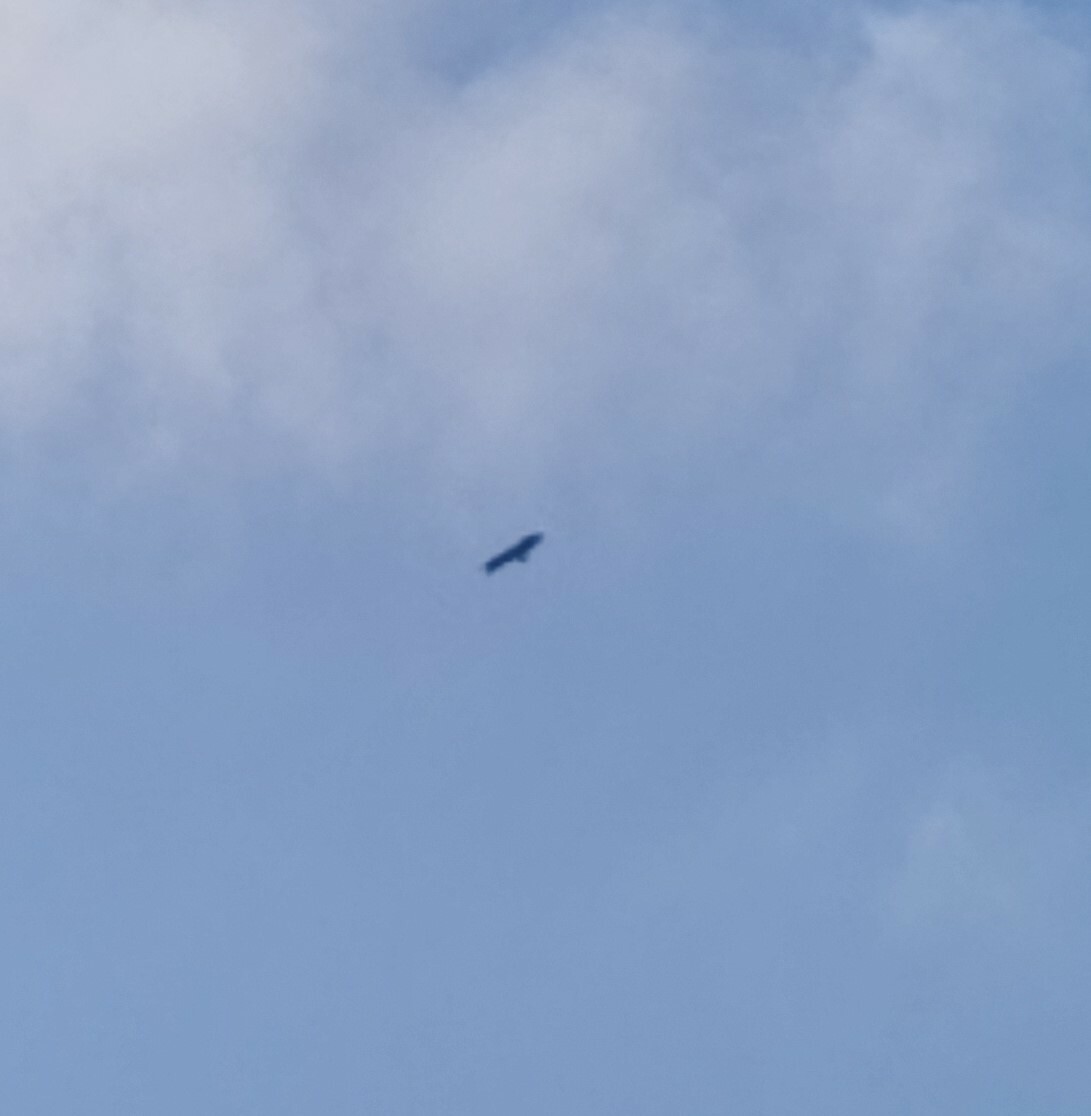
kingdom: Animalia
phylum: Chordata
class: Aves
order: Accipitriformes
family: Accipitridae
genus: Gyps
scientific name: Gyps fulvus
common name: Griffon vulture
